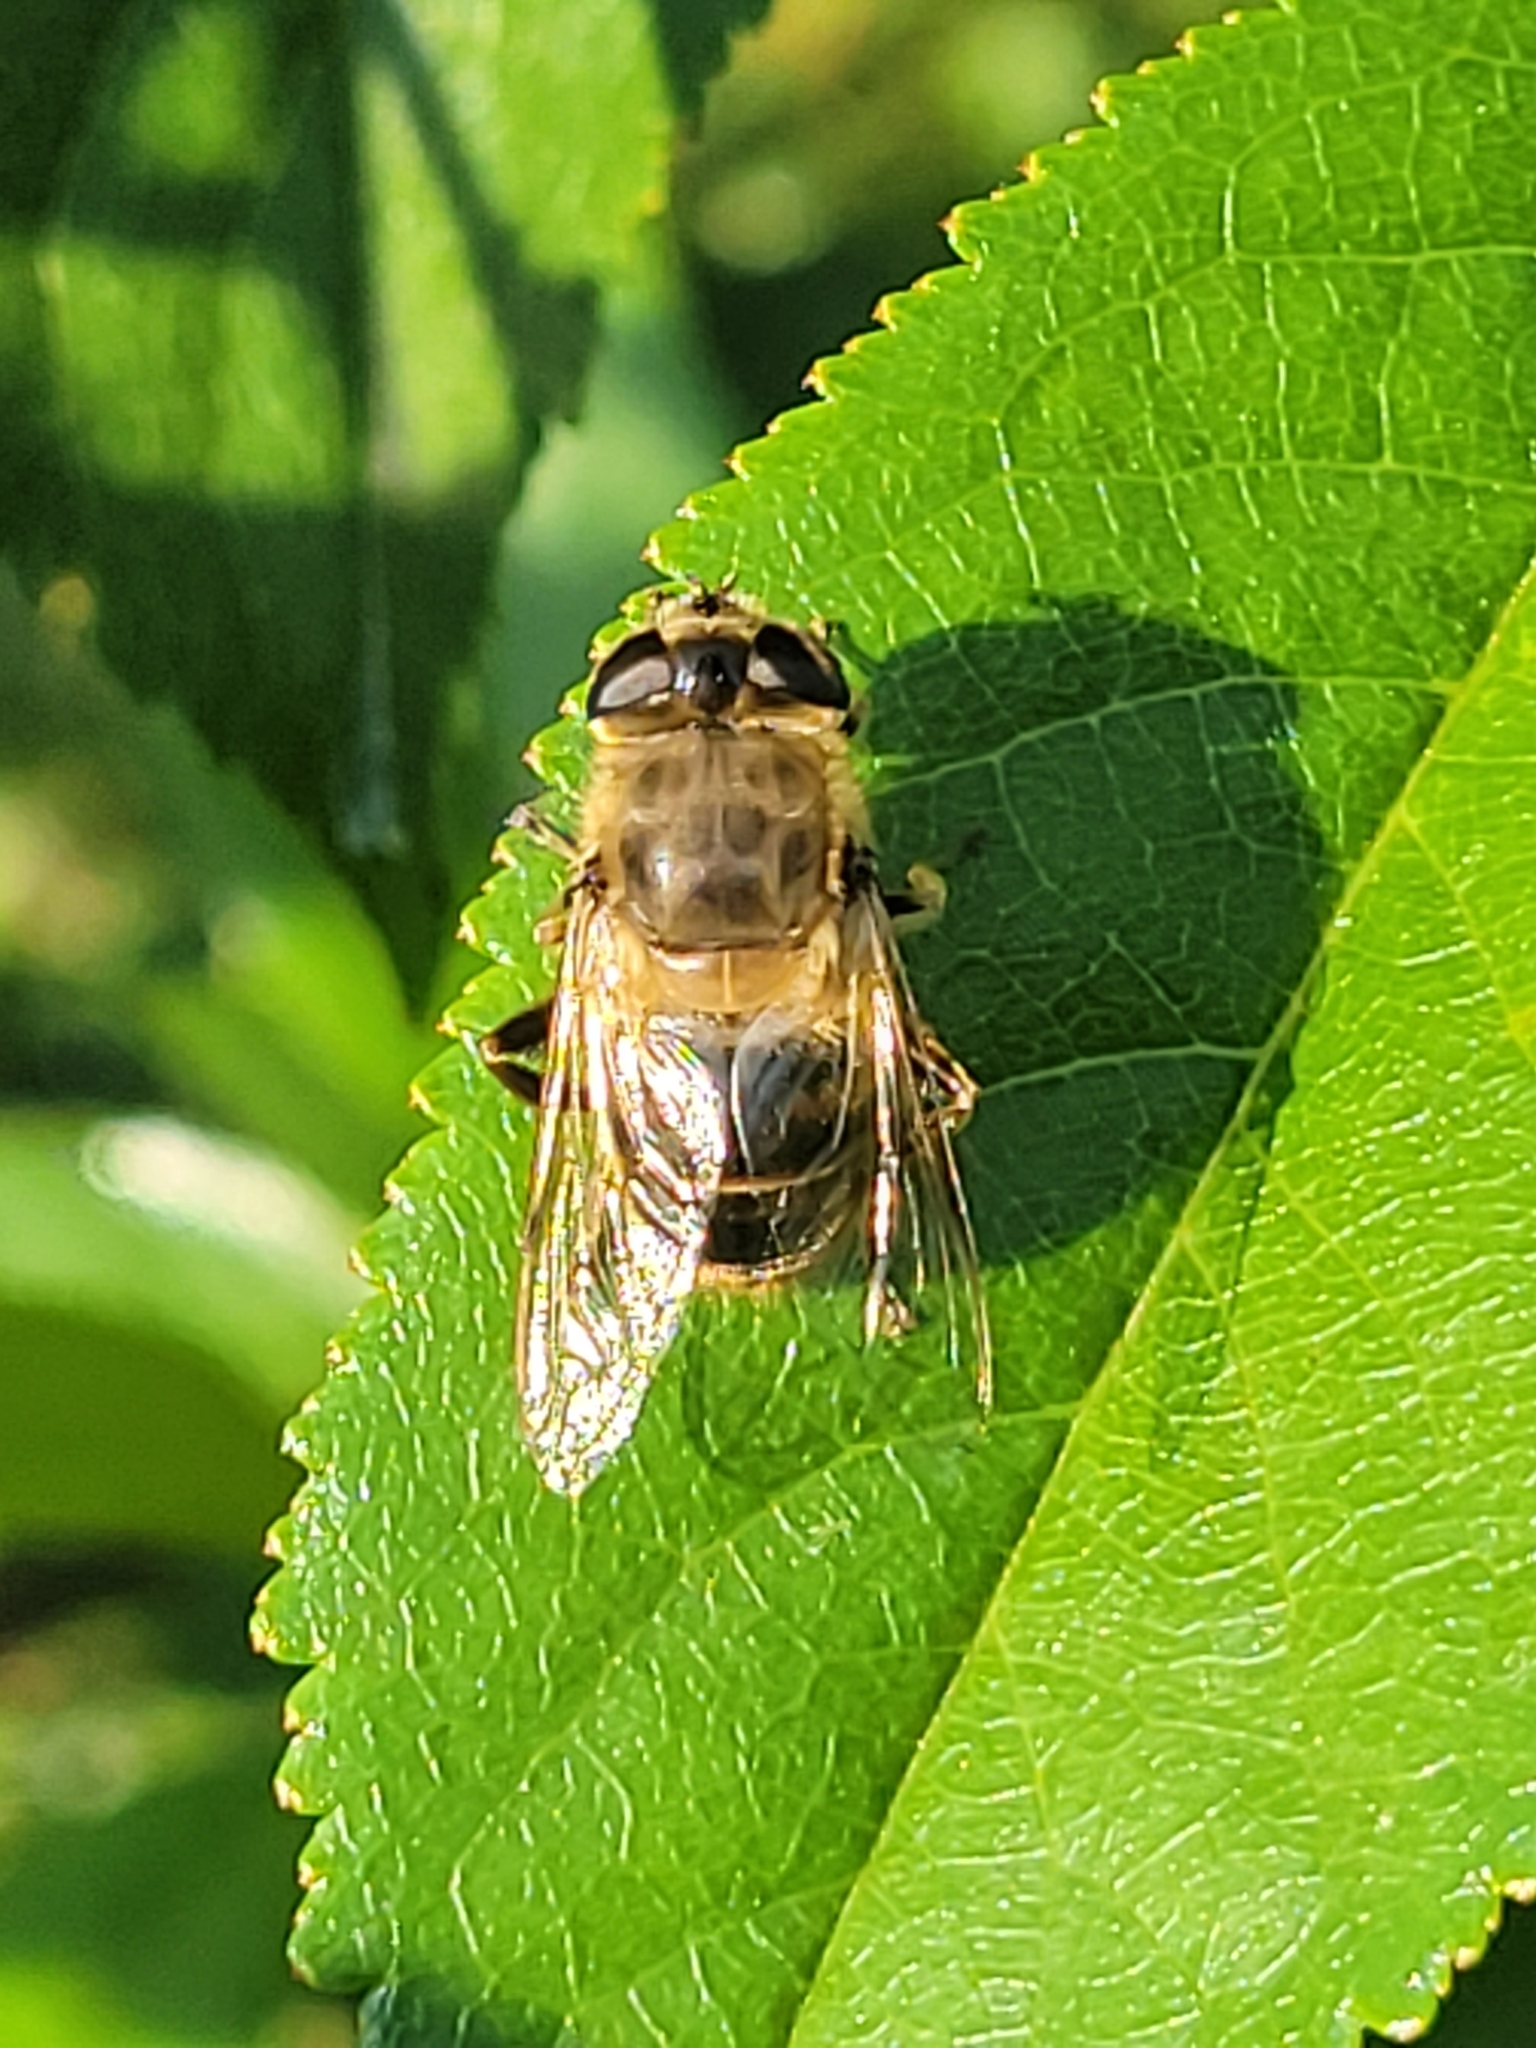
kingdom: Animalia
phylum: Arthropoda
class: Insecta
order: Diptera
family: Syrphidae
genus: Eristalis
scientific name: Eristalis tenax
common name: Drone fly
